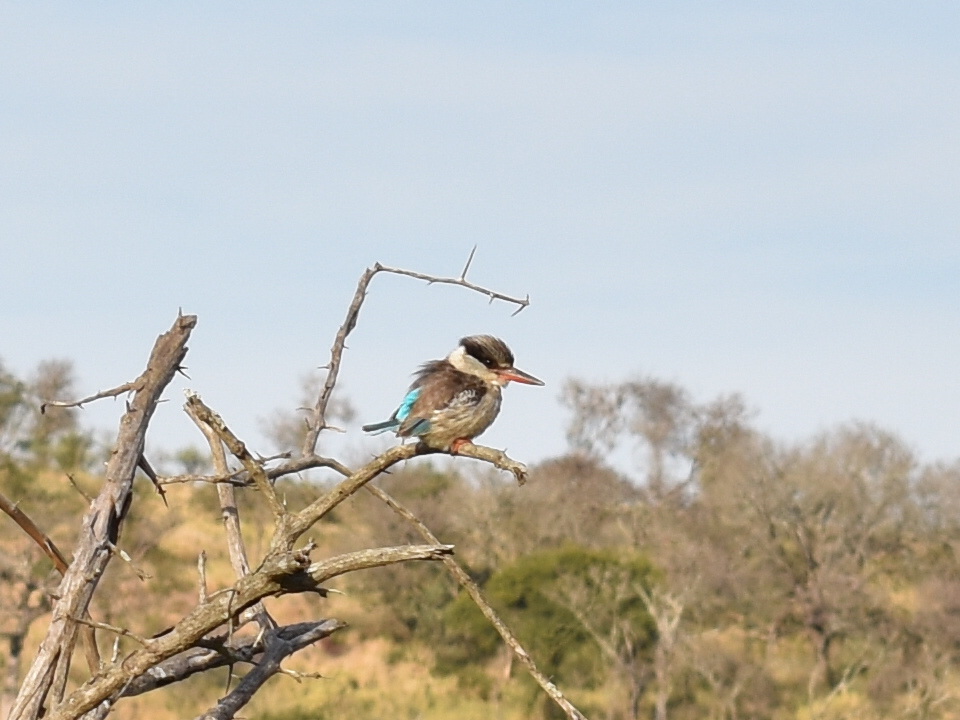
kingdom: Animalia
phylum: Chordata
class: Aves
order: Coraciiformes
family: Alcedinidae
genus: Halcyon
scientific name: Halcyon chelicuti
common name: Striped kingfisher
